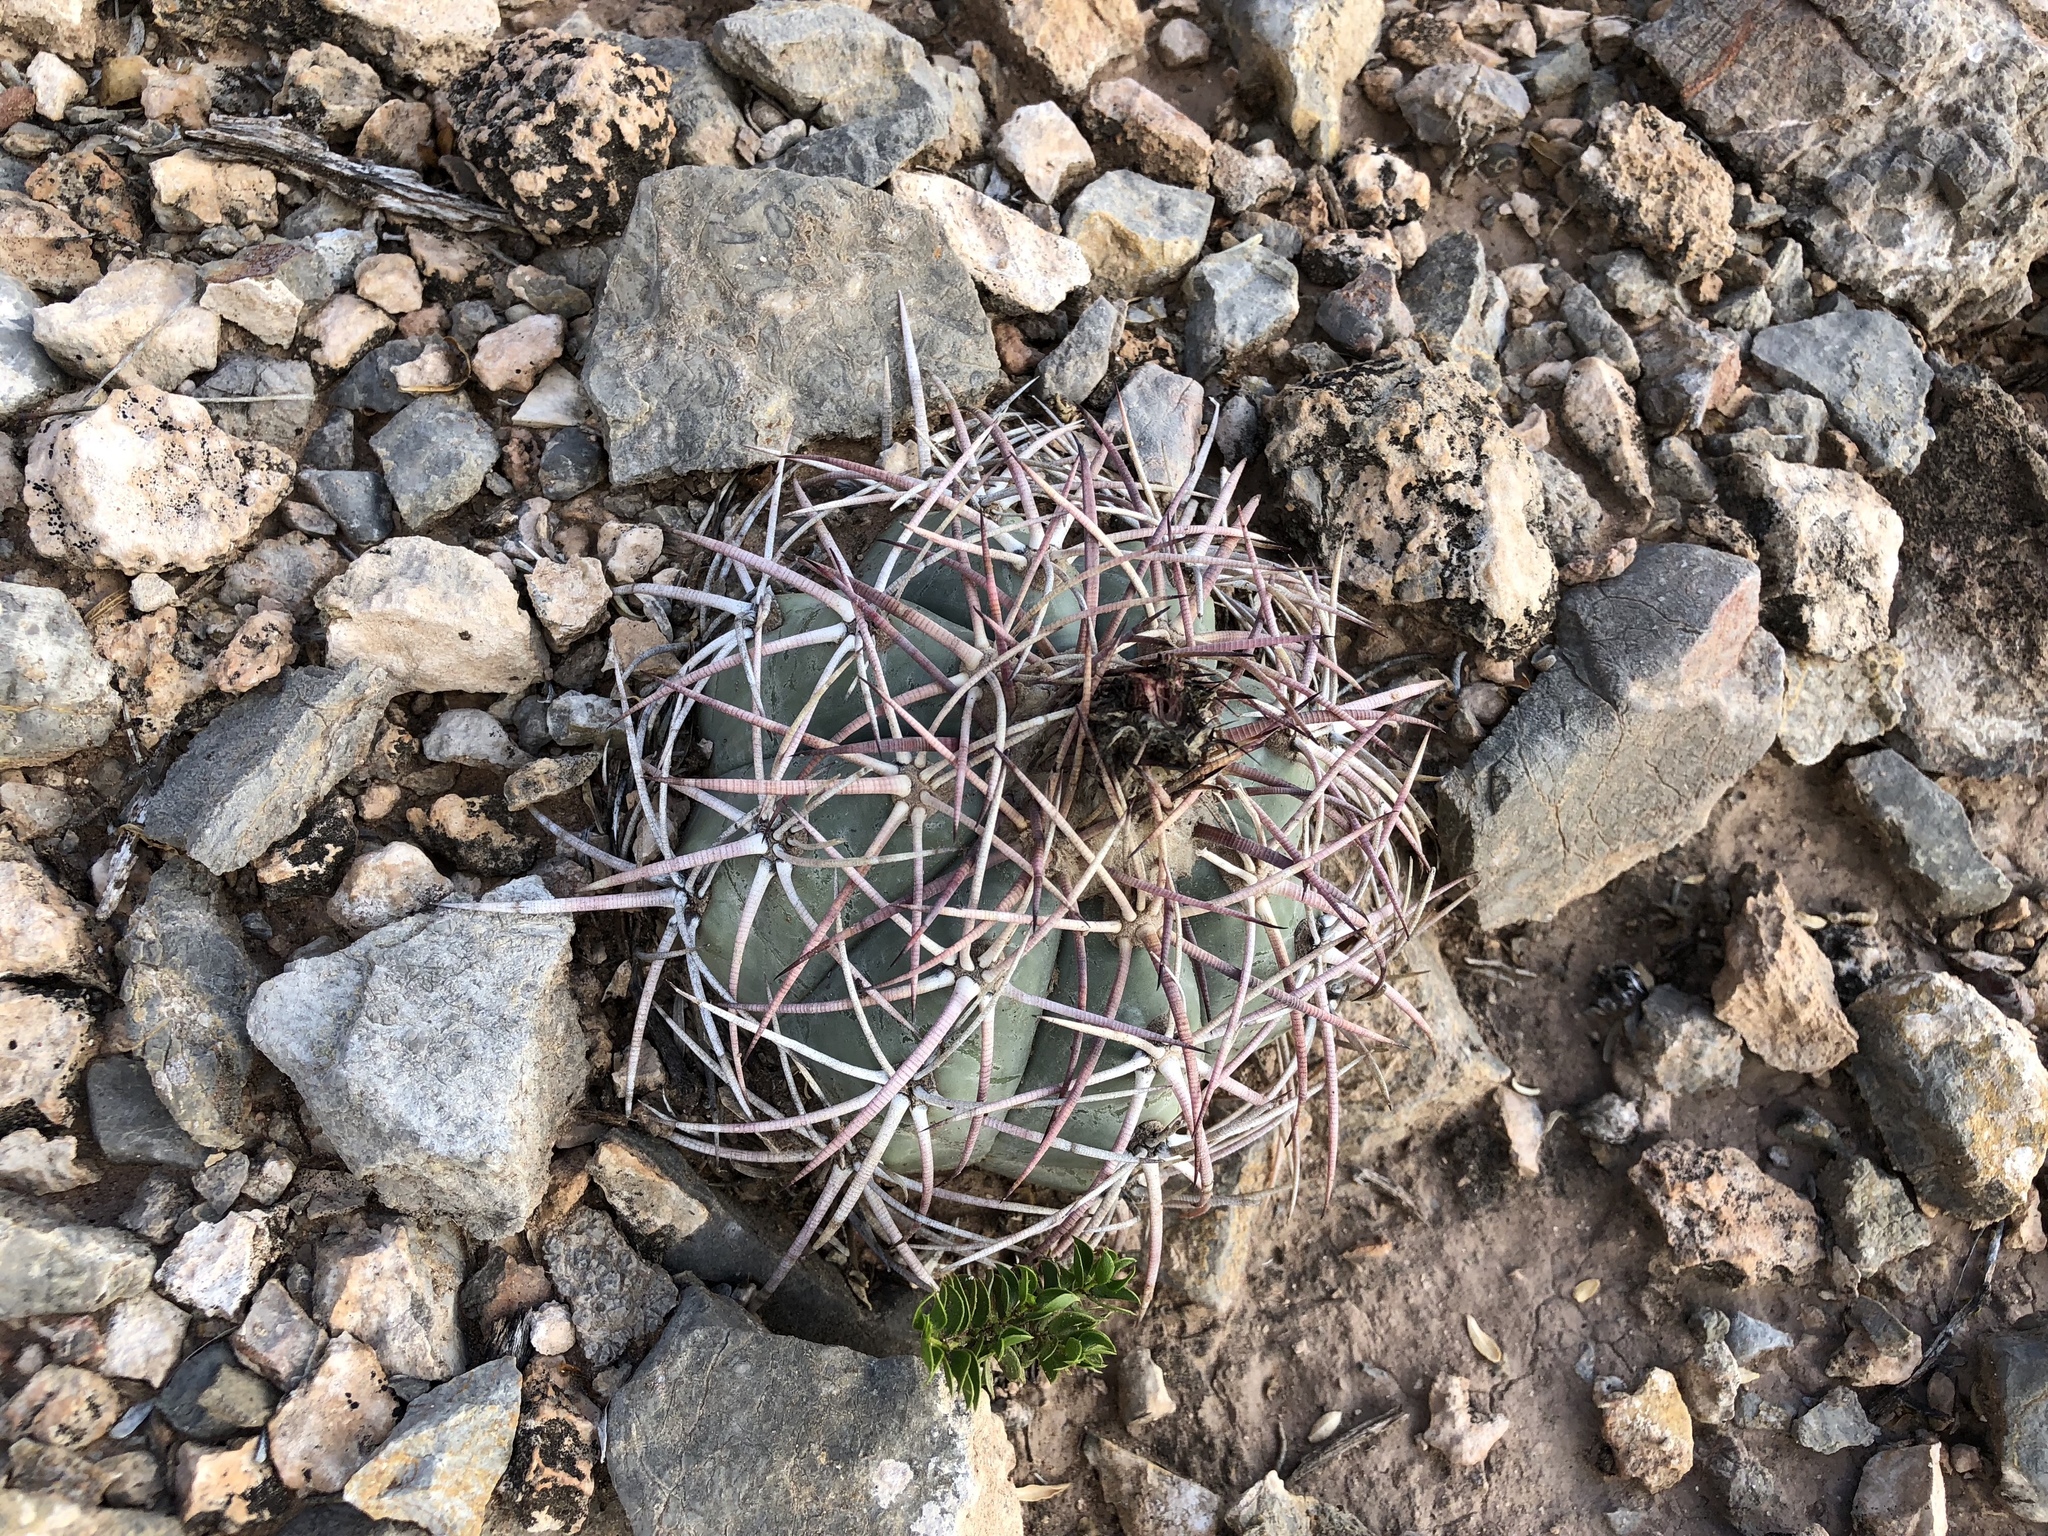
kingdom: Plantae
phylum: Tracheophyta
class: Magnoliopsida
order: Caryophyllales
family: Cactaceae
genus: Echinocactus
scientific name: Echinocactus horizonthalonius
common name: Devilshead
